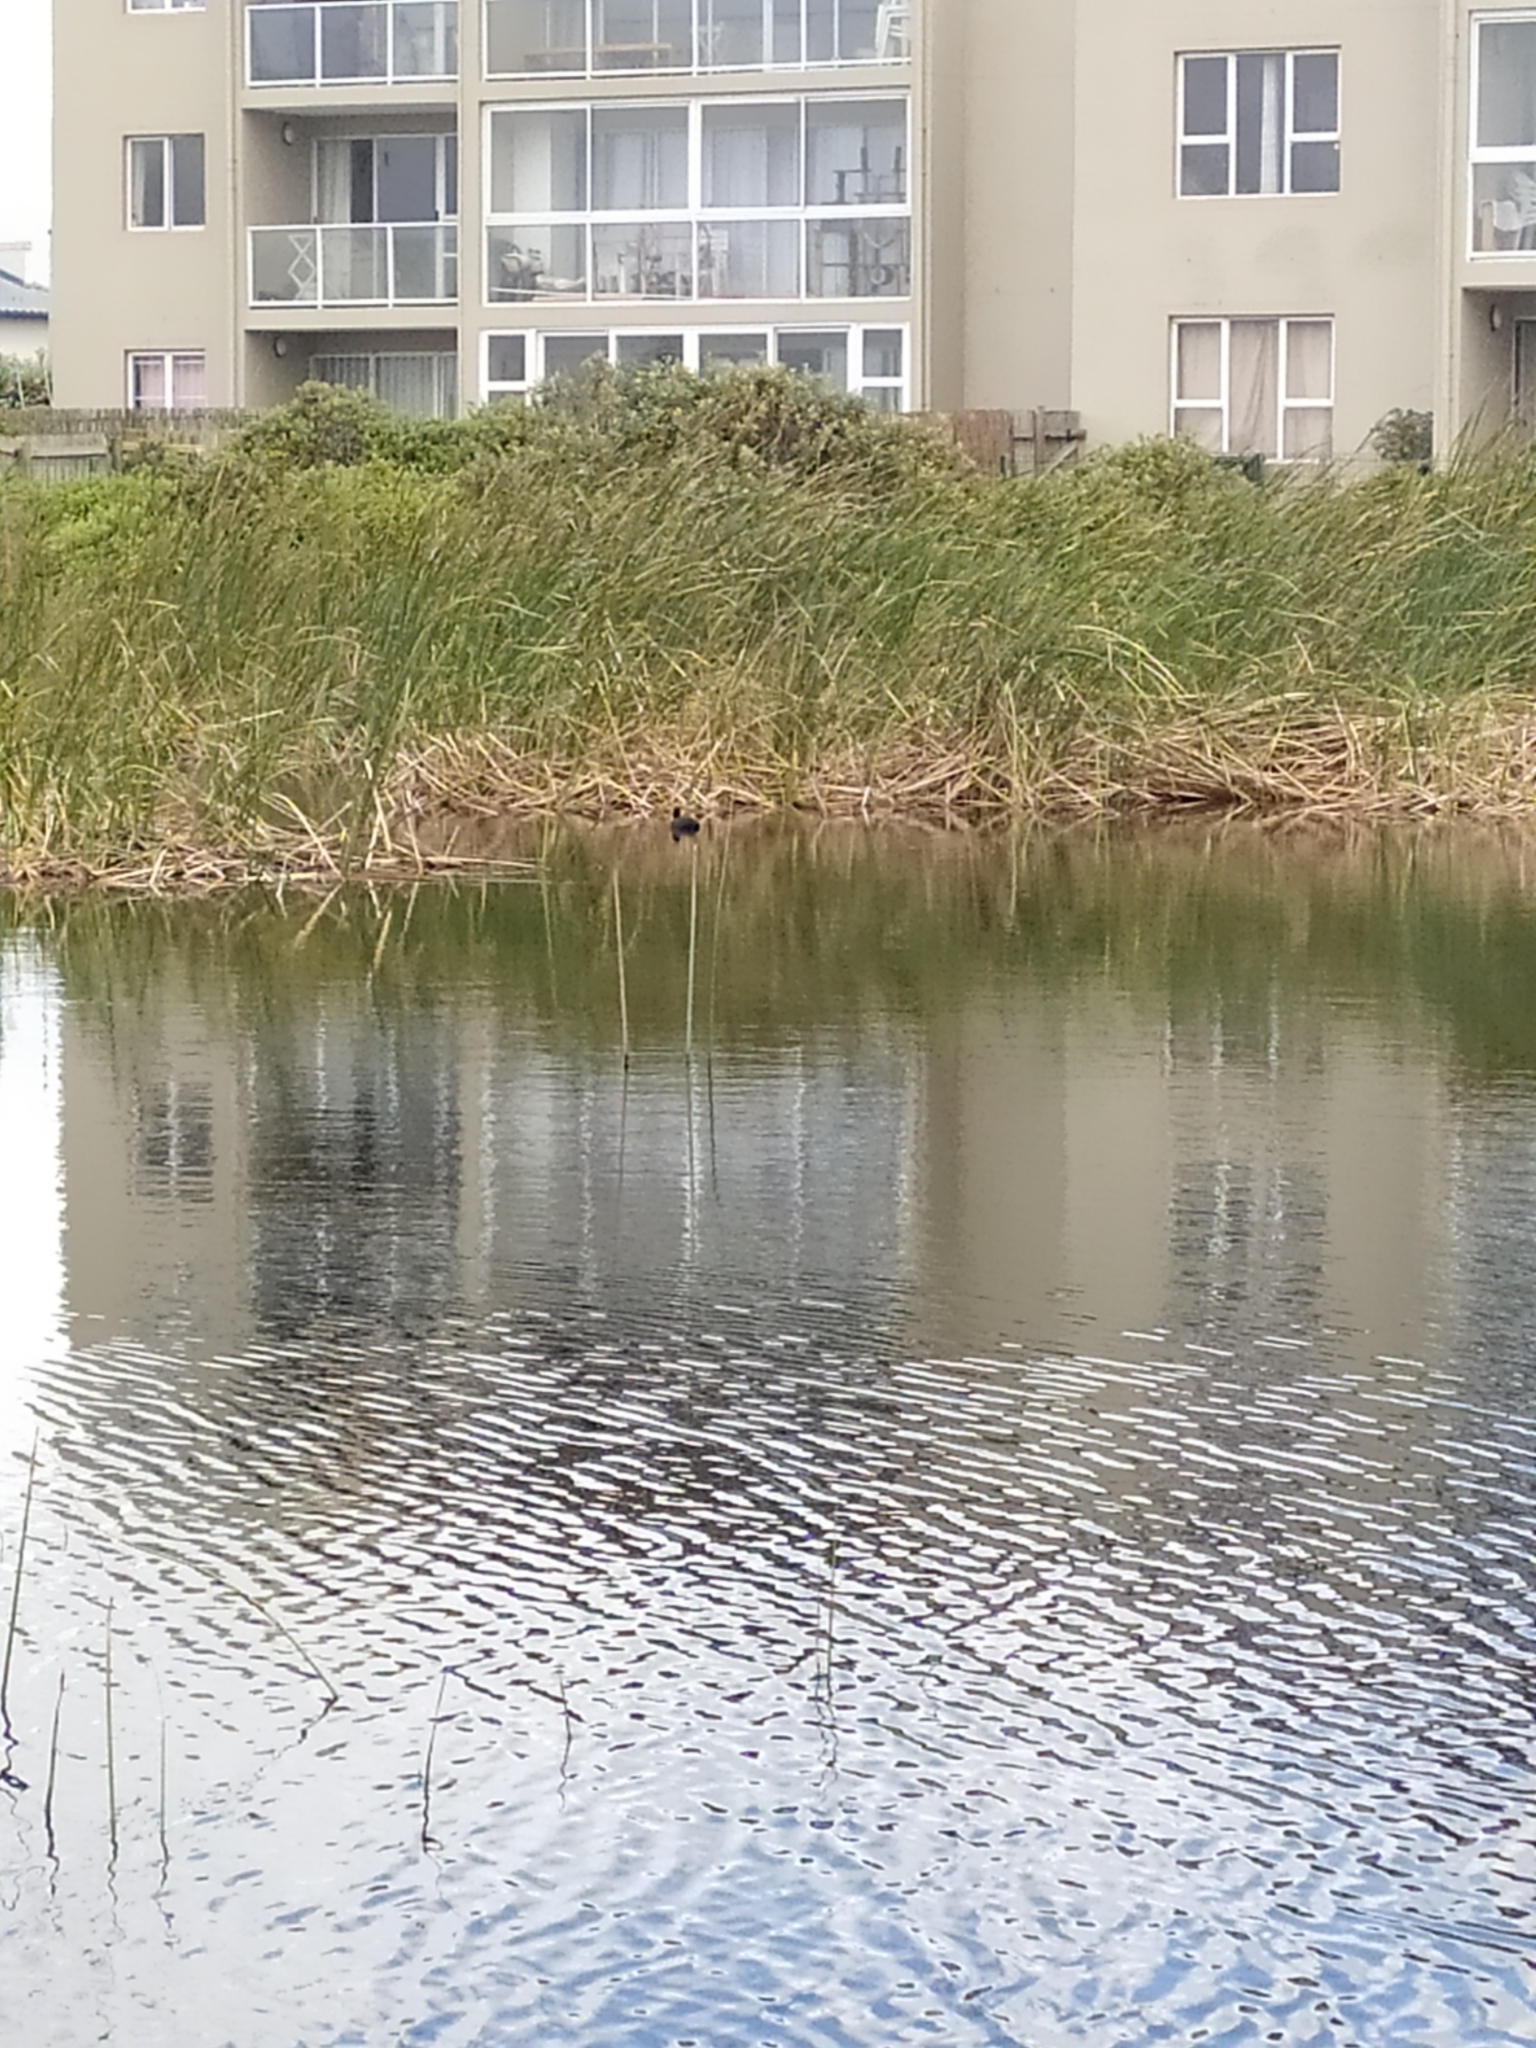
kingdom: Animalia
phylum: Chordata
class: Aves
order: Gruiformes
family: Rallidae
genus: Fulica
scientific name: Fulica cristata
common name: Red-knobbed coot
